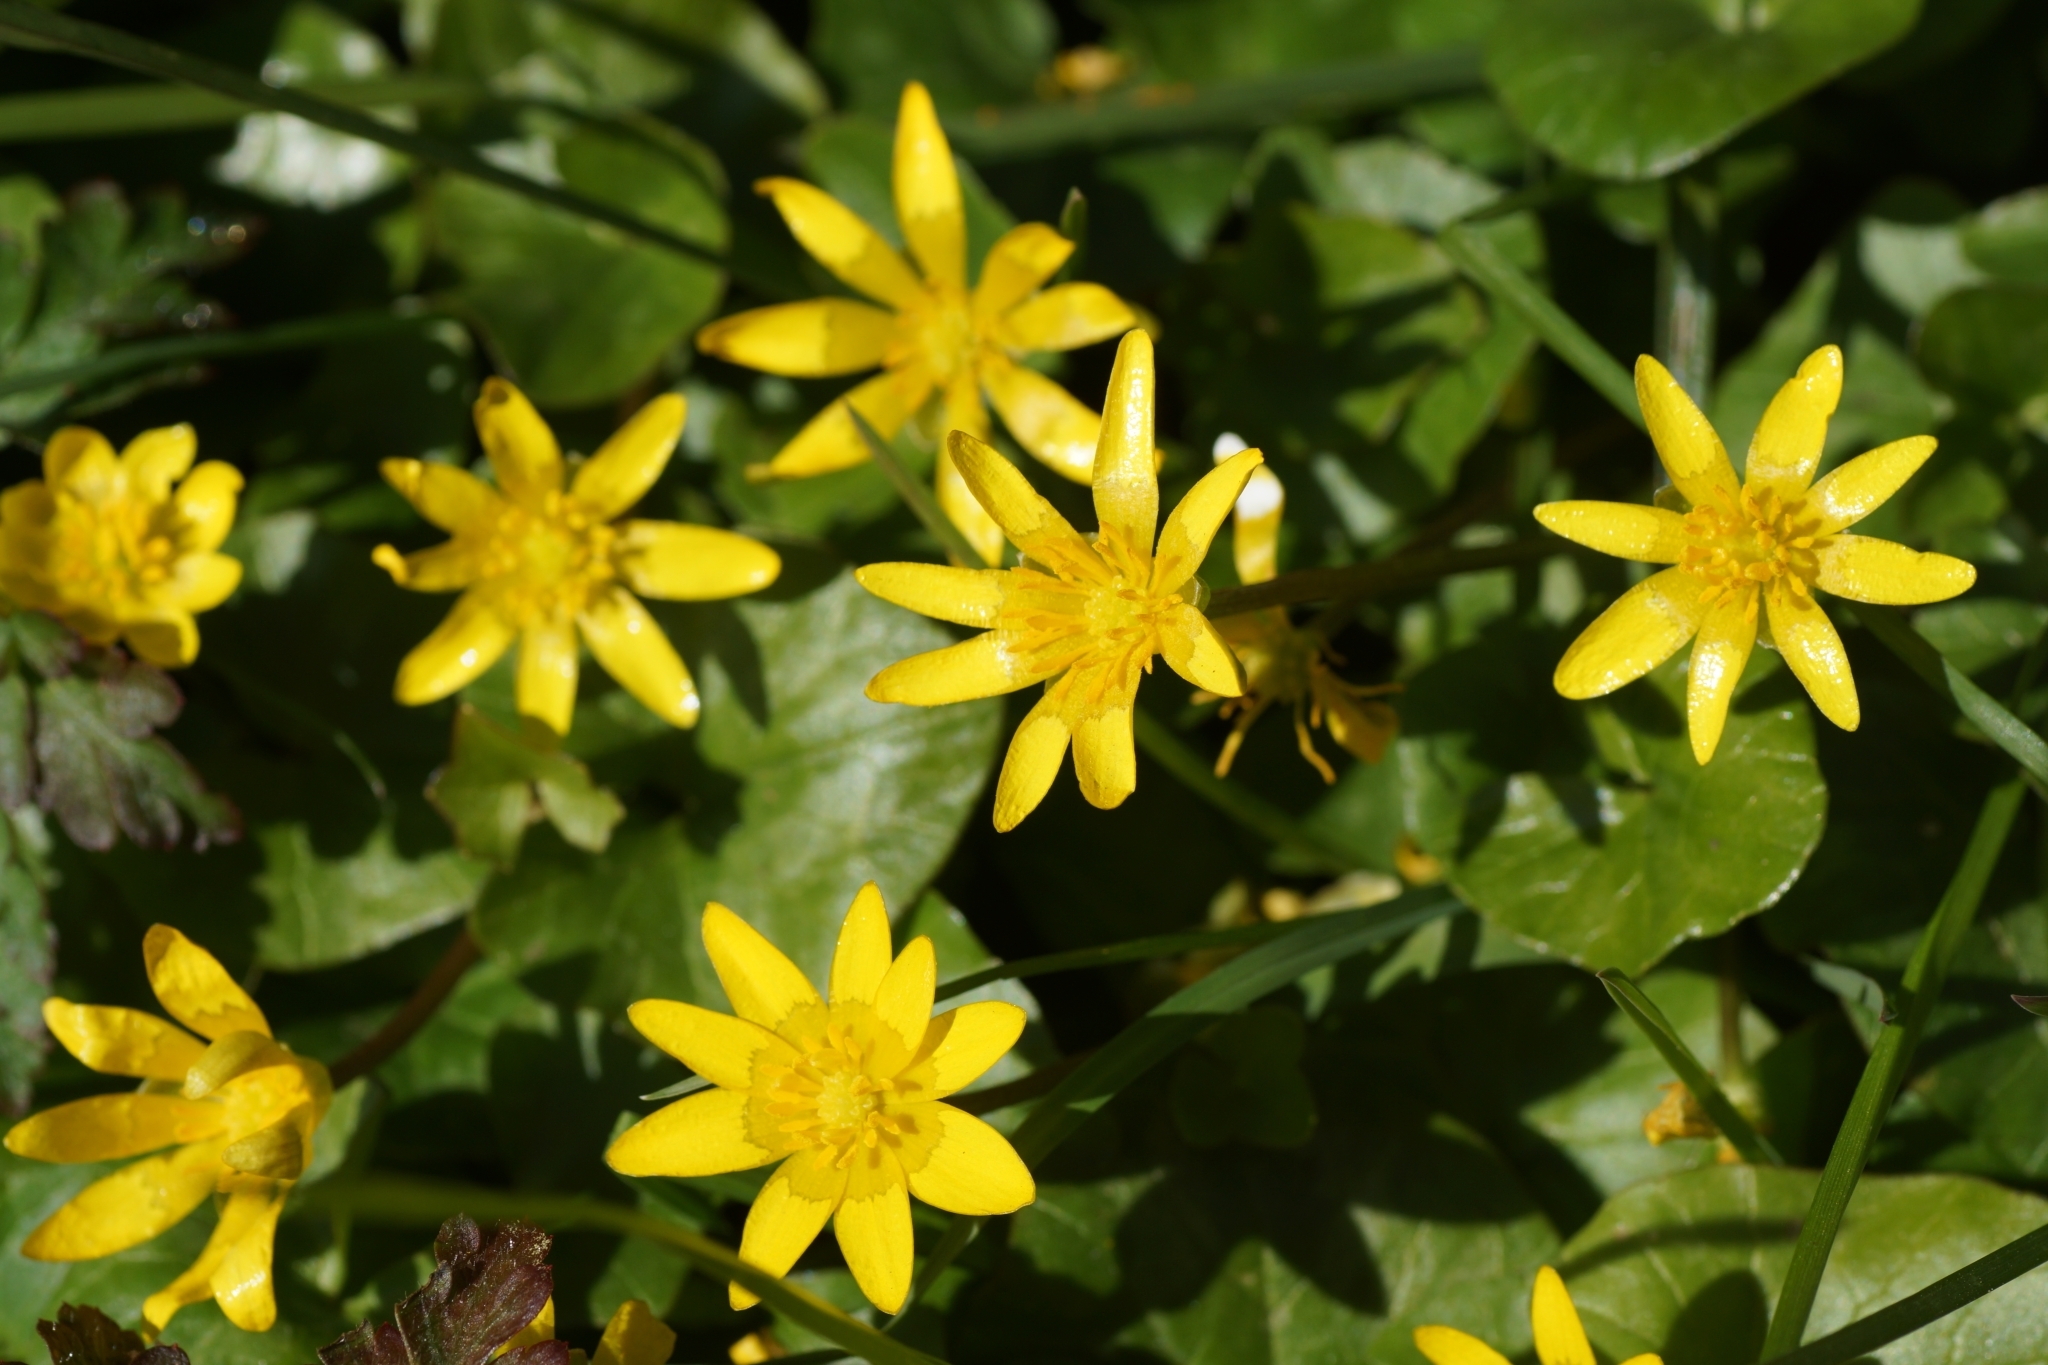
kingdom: Plantae
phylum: Tracheophyta
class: Magnoliopsida
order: Ranunculales
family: Ranunculaceae
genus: Ficaria
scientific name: Ficaria verna
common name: Lesser celandine
